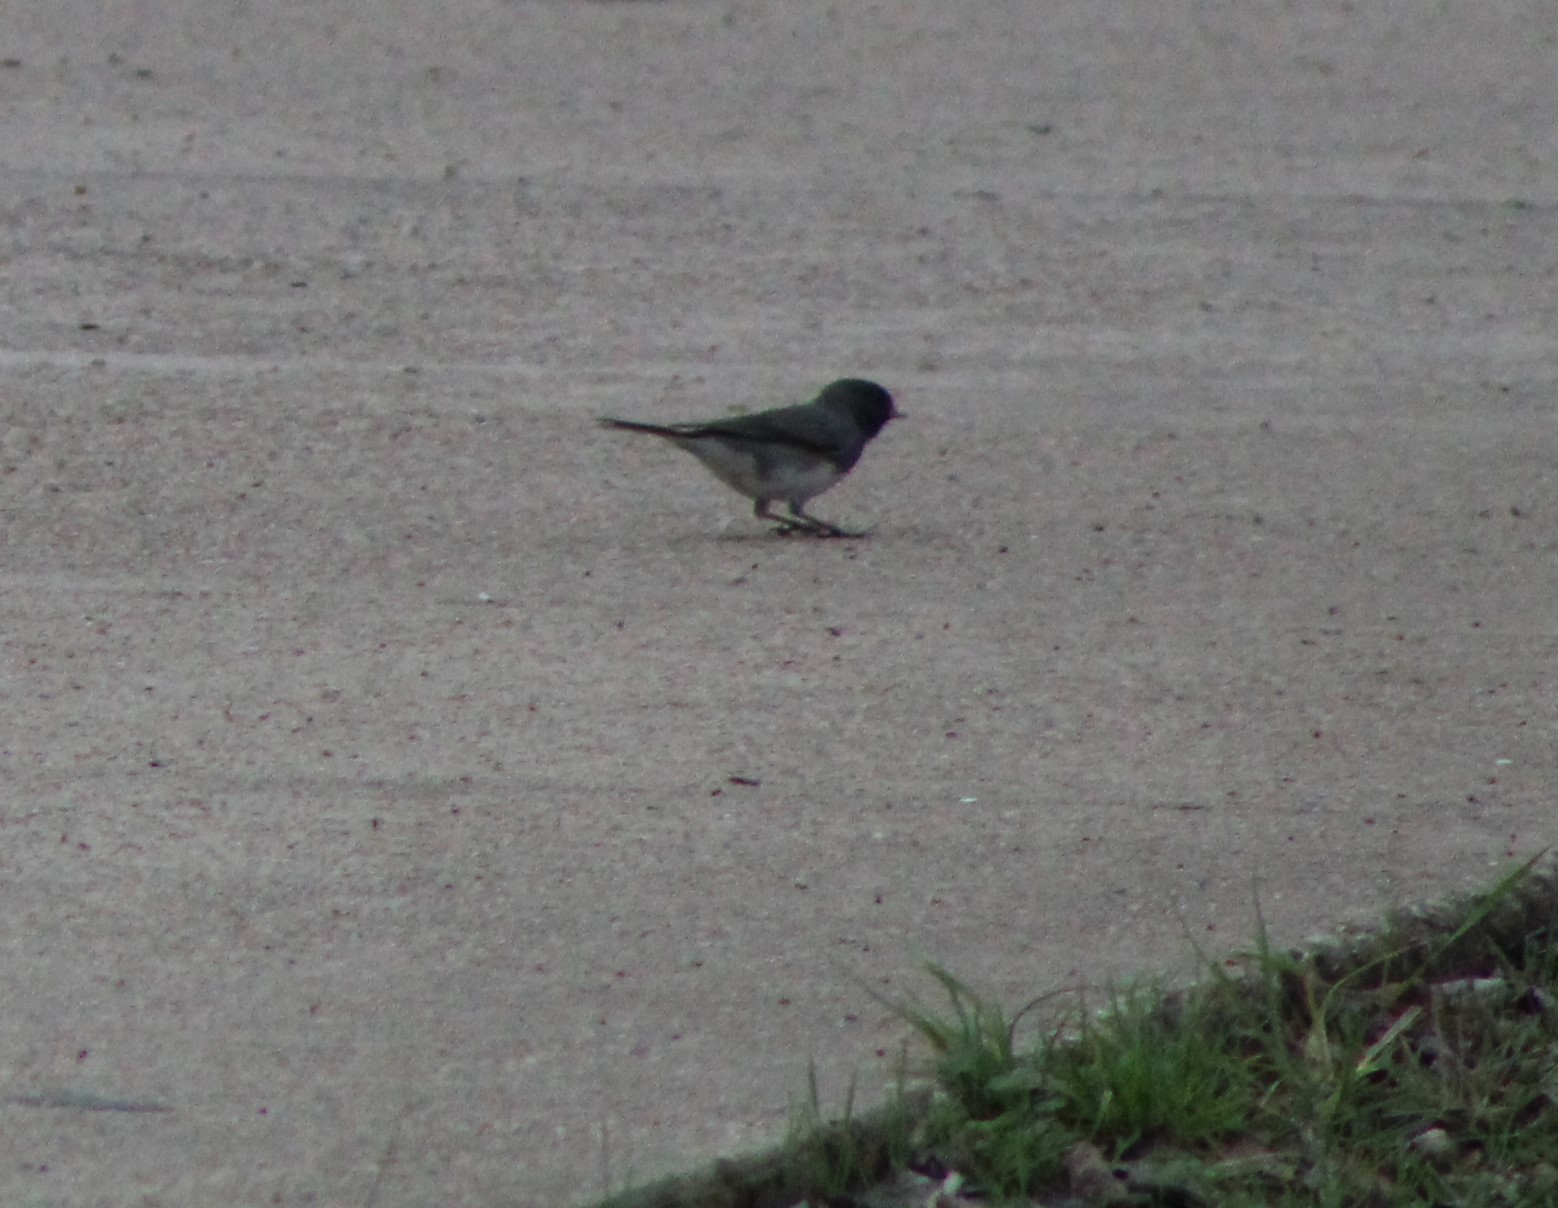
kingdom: Animalia
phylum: Chordata
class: Aves
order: Passeriformes
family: Passerellidae
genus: Junco
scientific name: Junco hyemalis
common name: Dark-eyed junco
